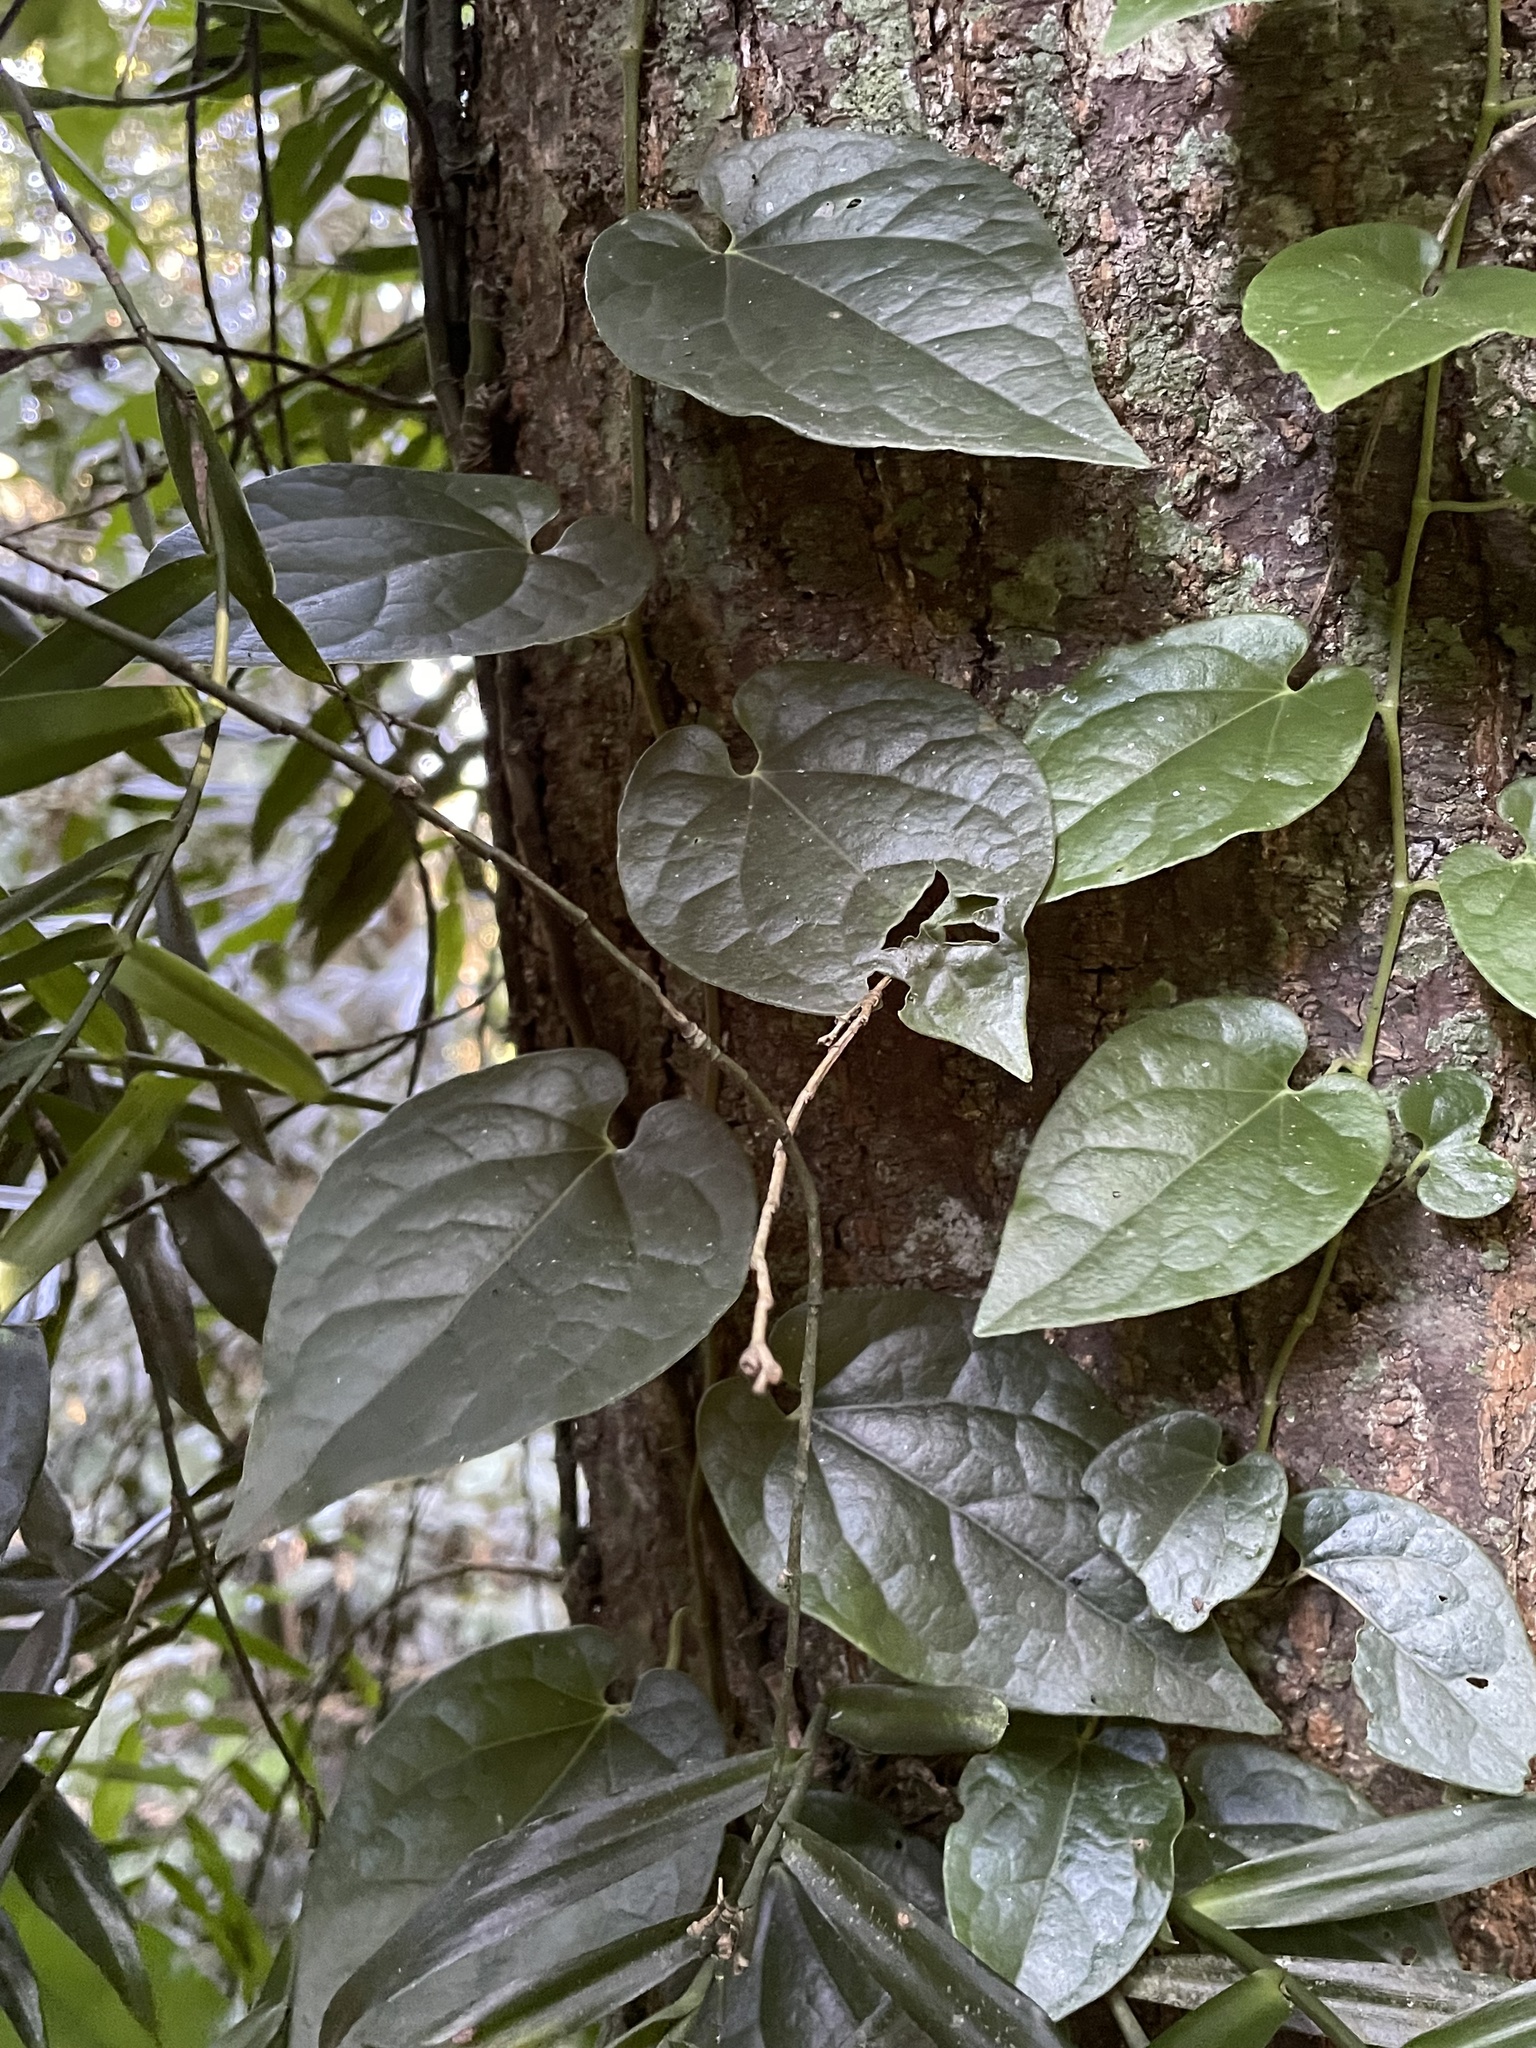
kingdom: Plantae
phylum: Tracheophyta
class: Magnoliopsida
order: Piperales
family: Piperaceae
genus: Piper
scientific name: Piper hederaceum
